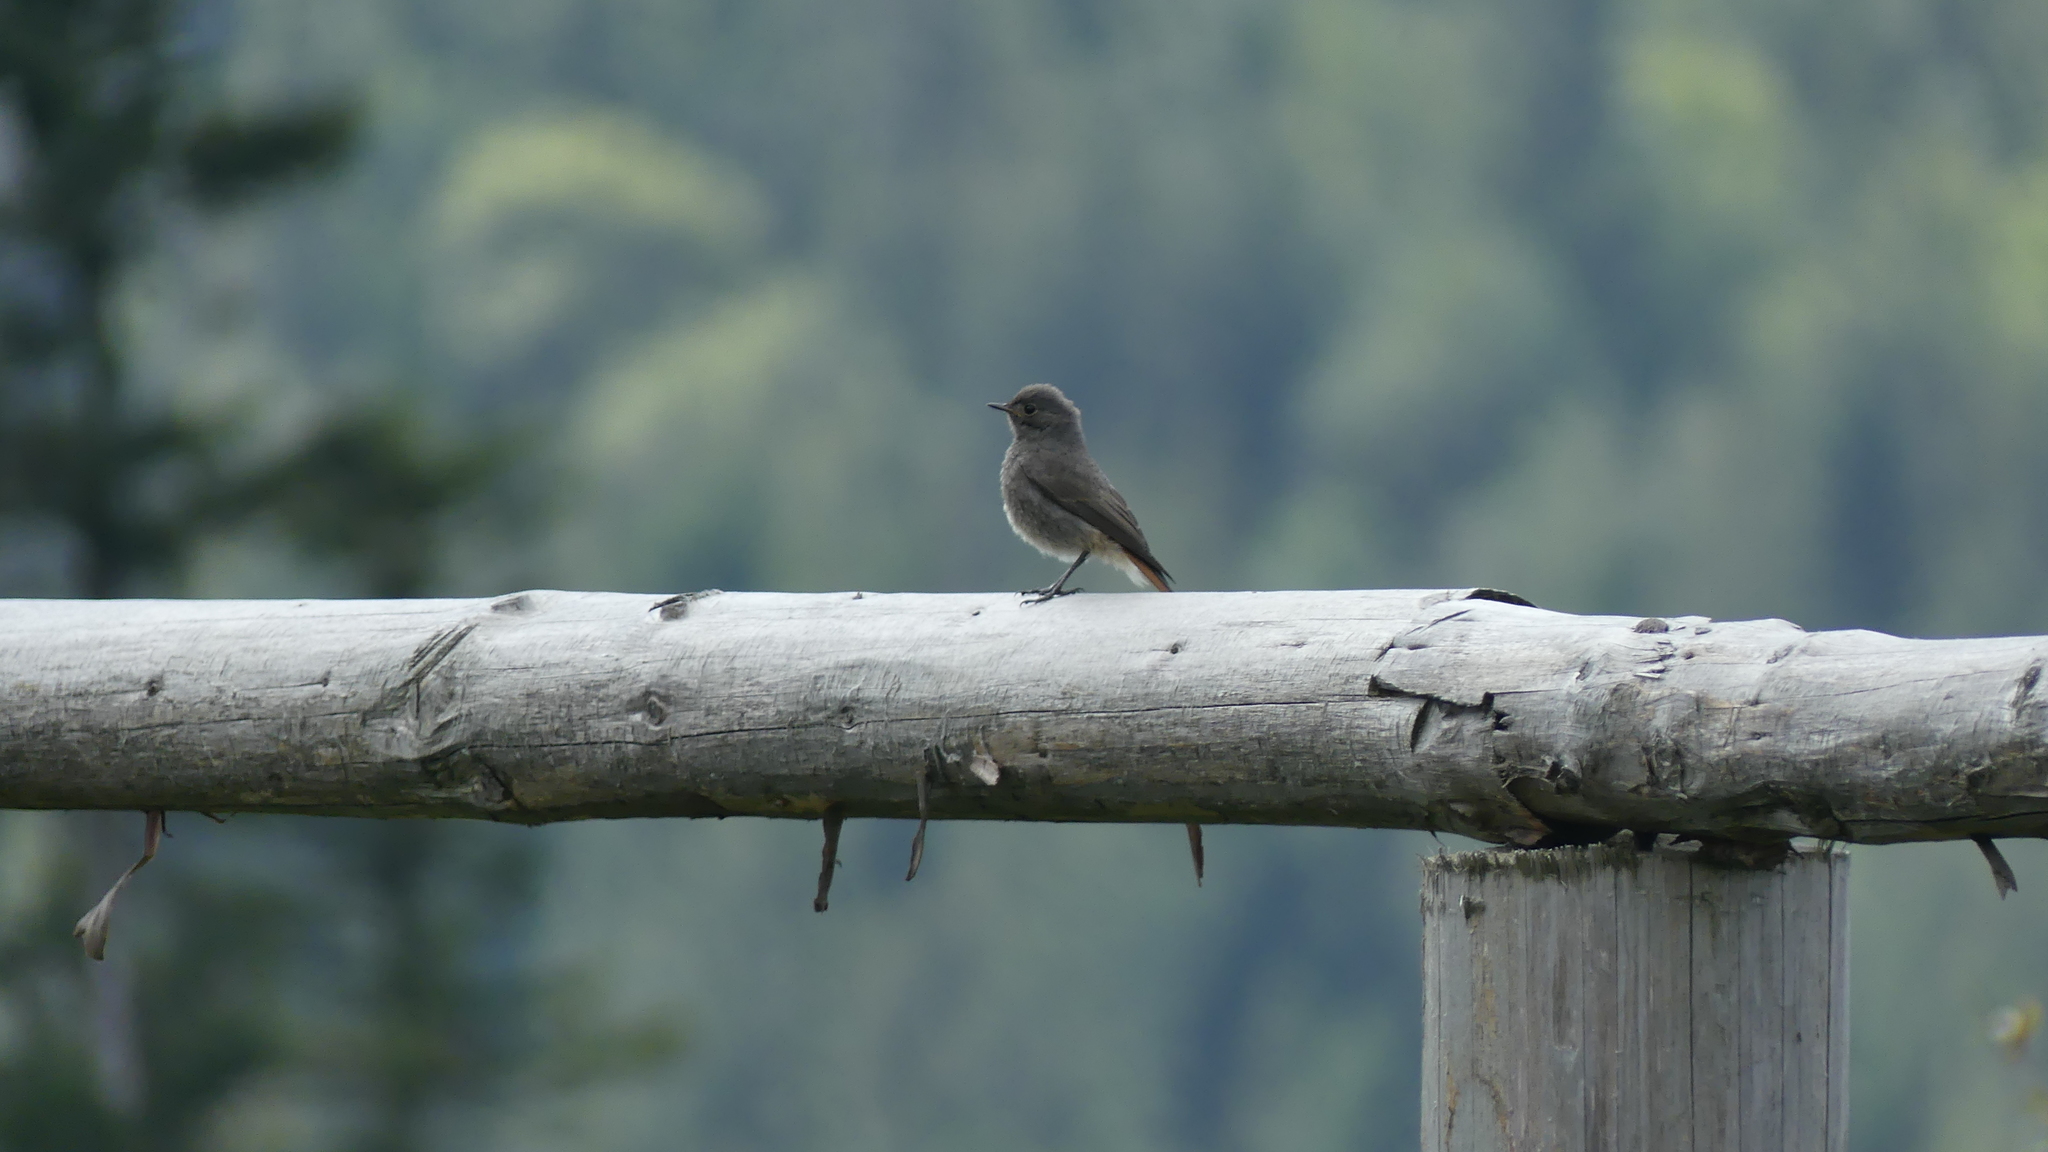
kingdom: Animalia
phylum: Chordata
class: Aves
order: Passeriformes
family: Muscicapidae
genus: Phoenicurus
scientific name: Phoenicurus ochruros
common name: Black redstart
